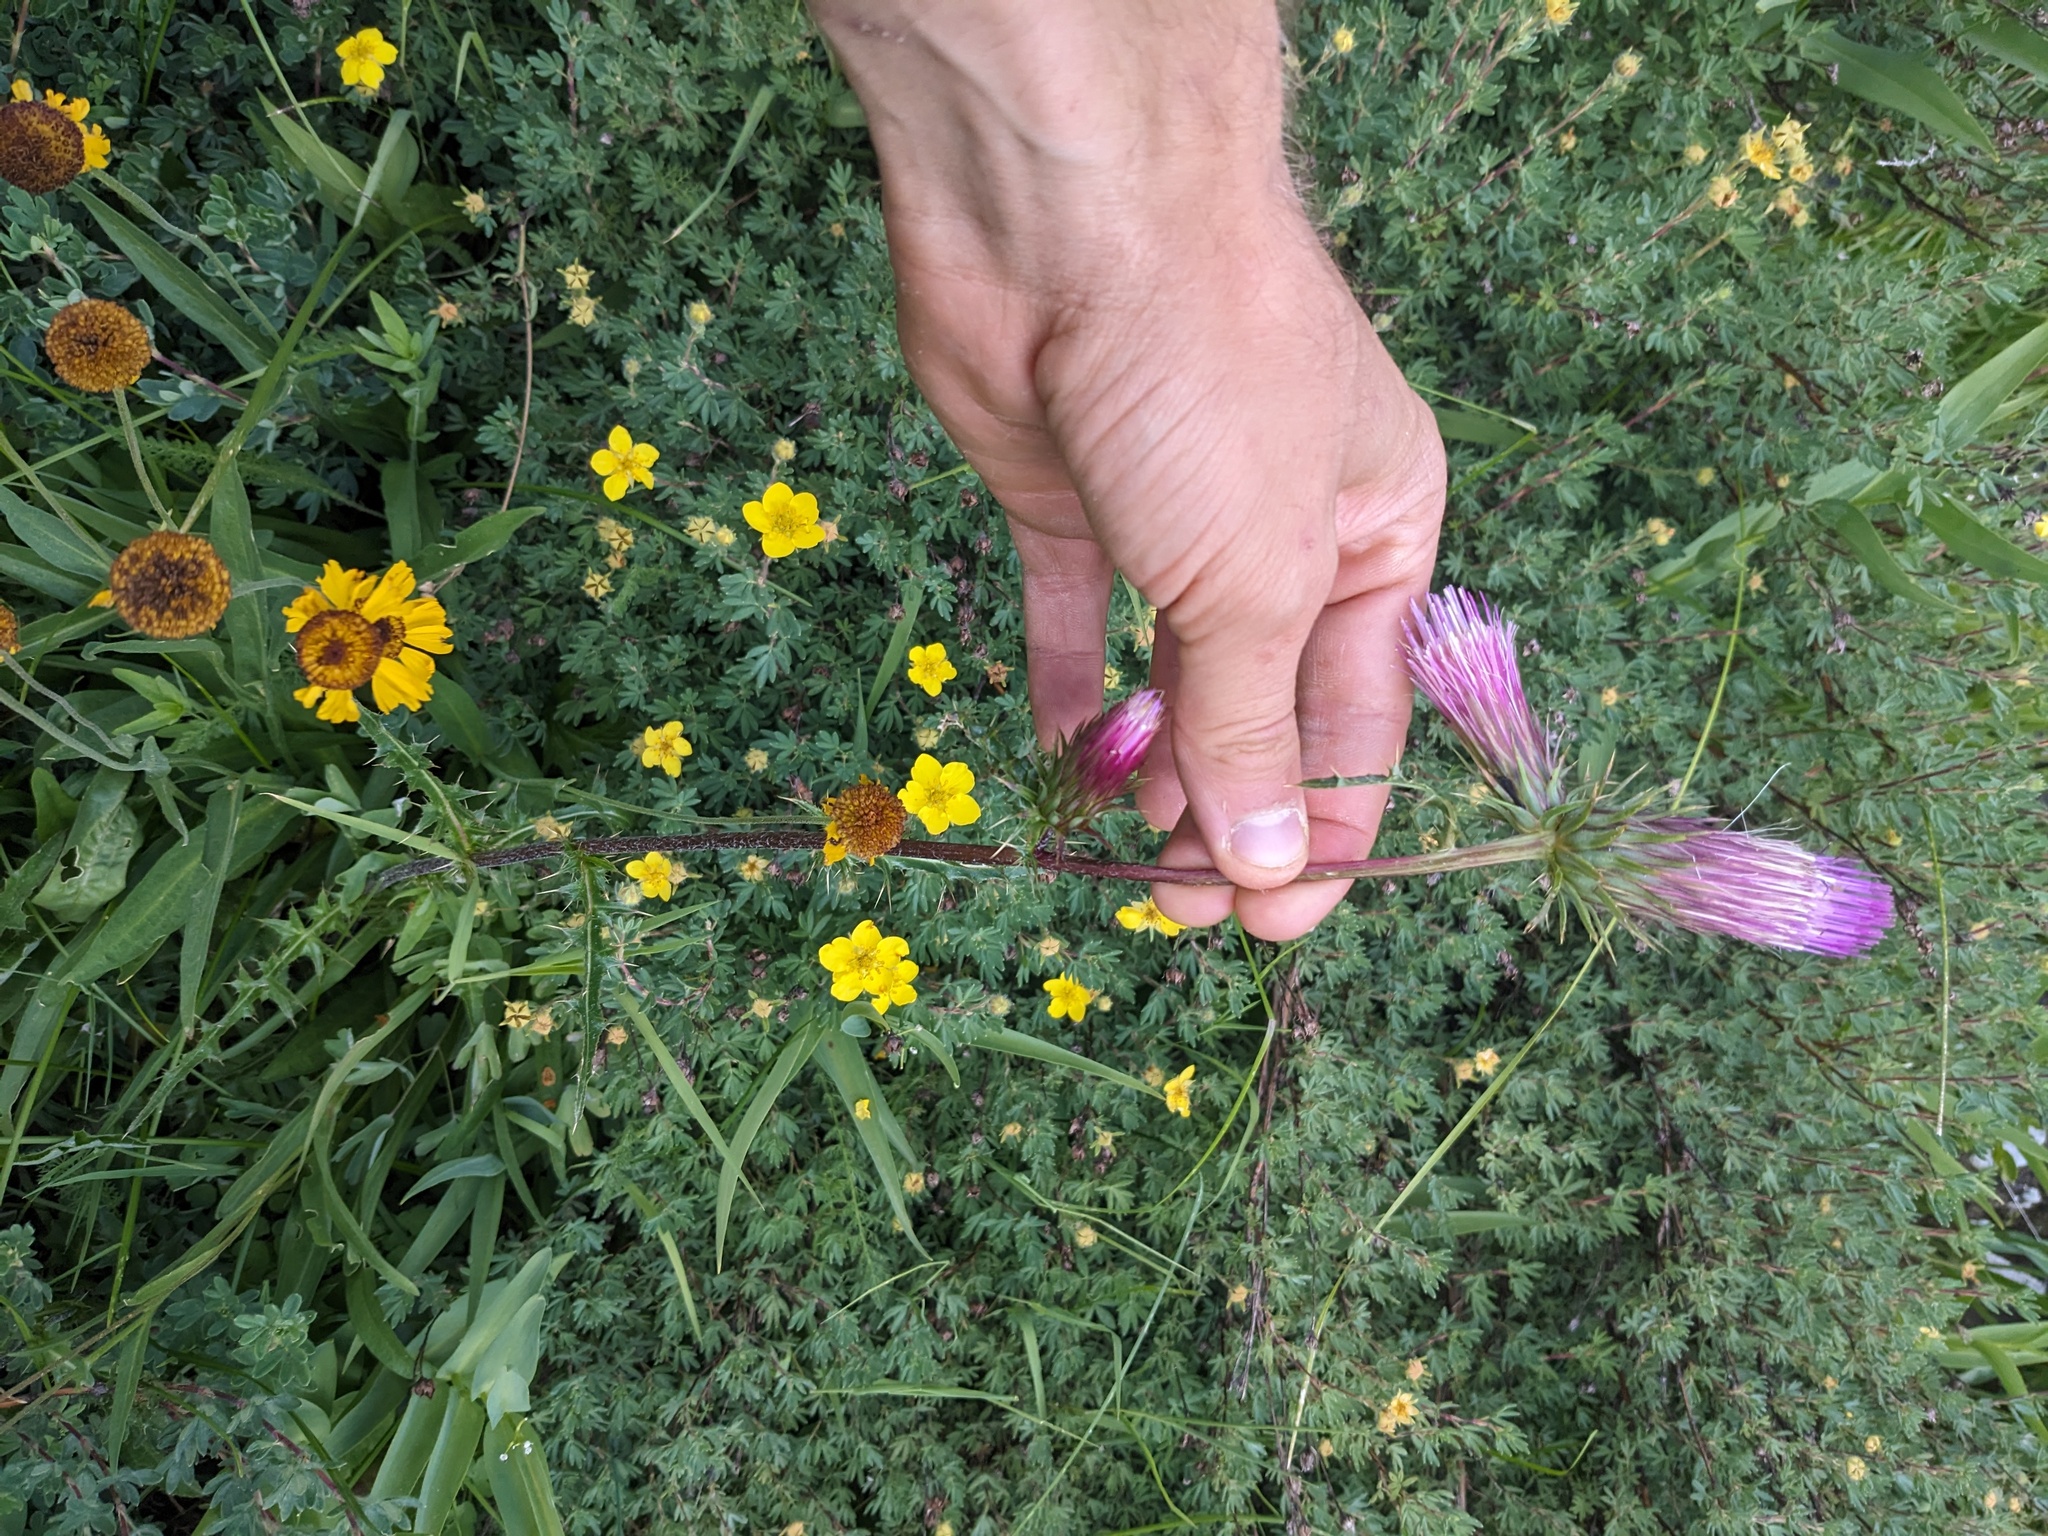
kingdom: Plantae
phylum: Tracheophyta
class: Magnoliopsida
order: Asterales
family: Asteraceae
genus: Cirsium
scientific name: Cirsium andersonii
